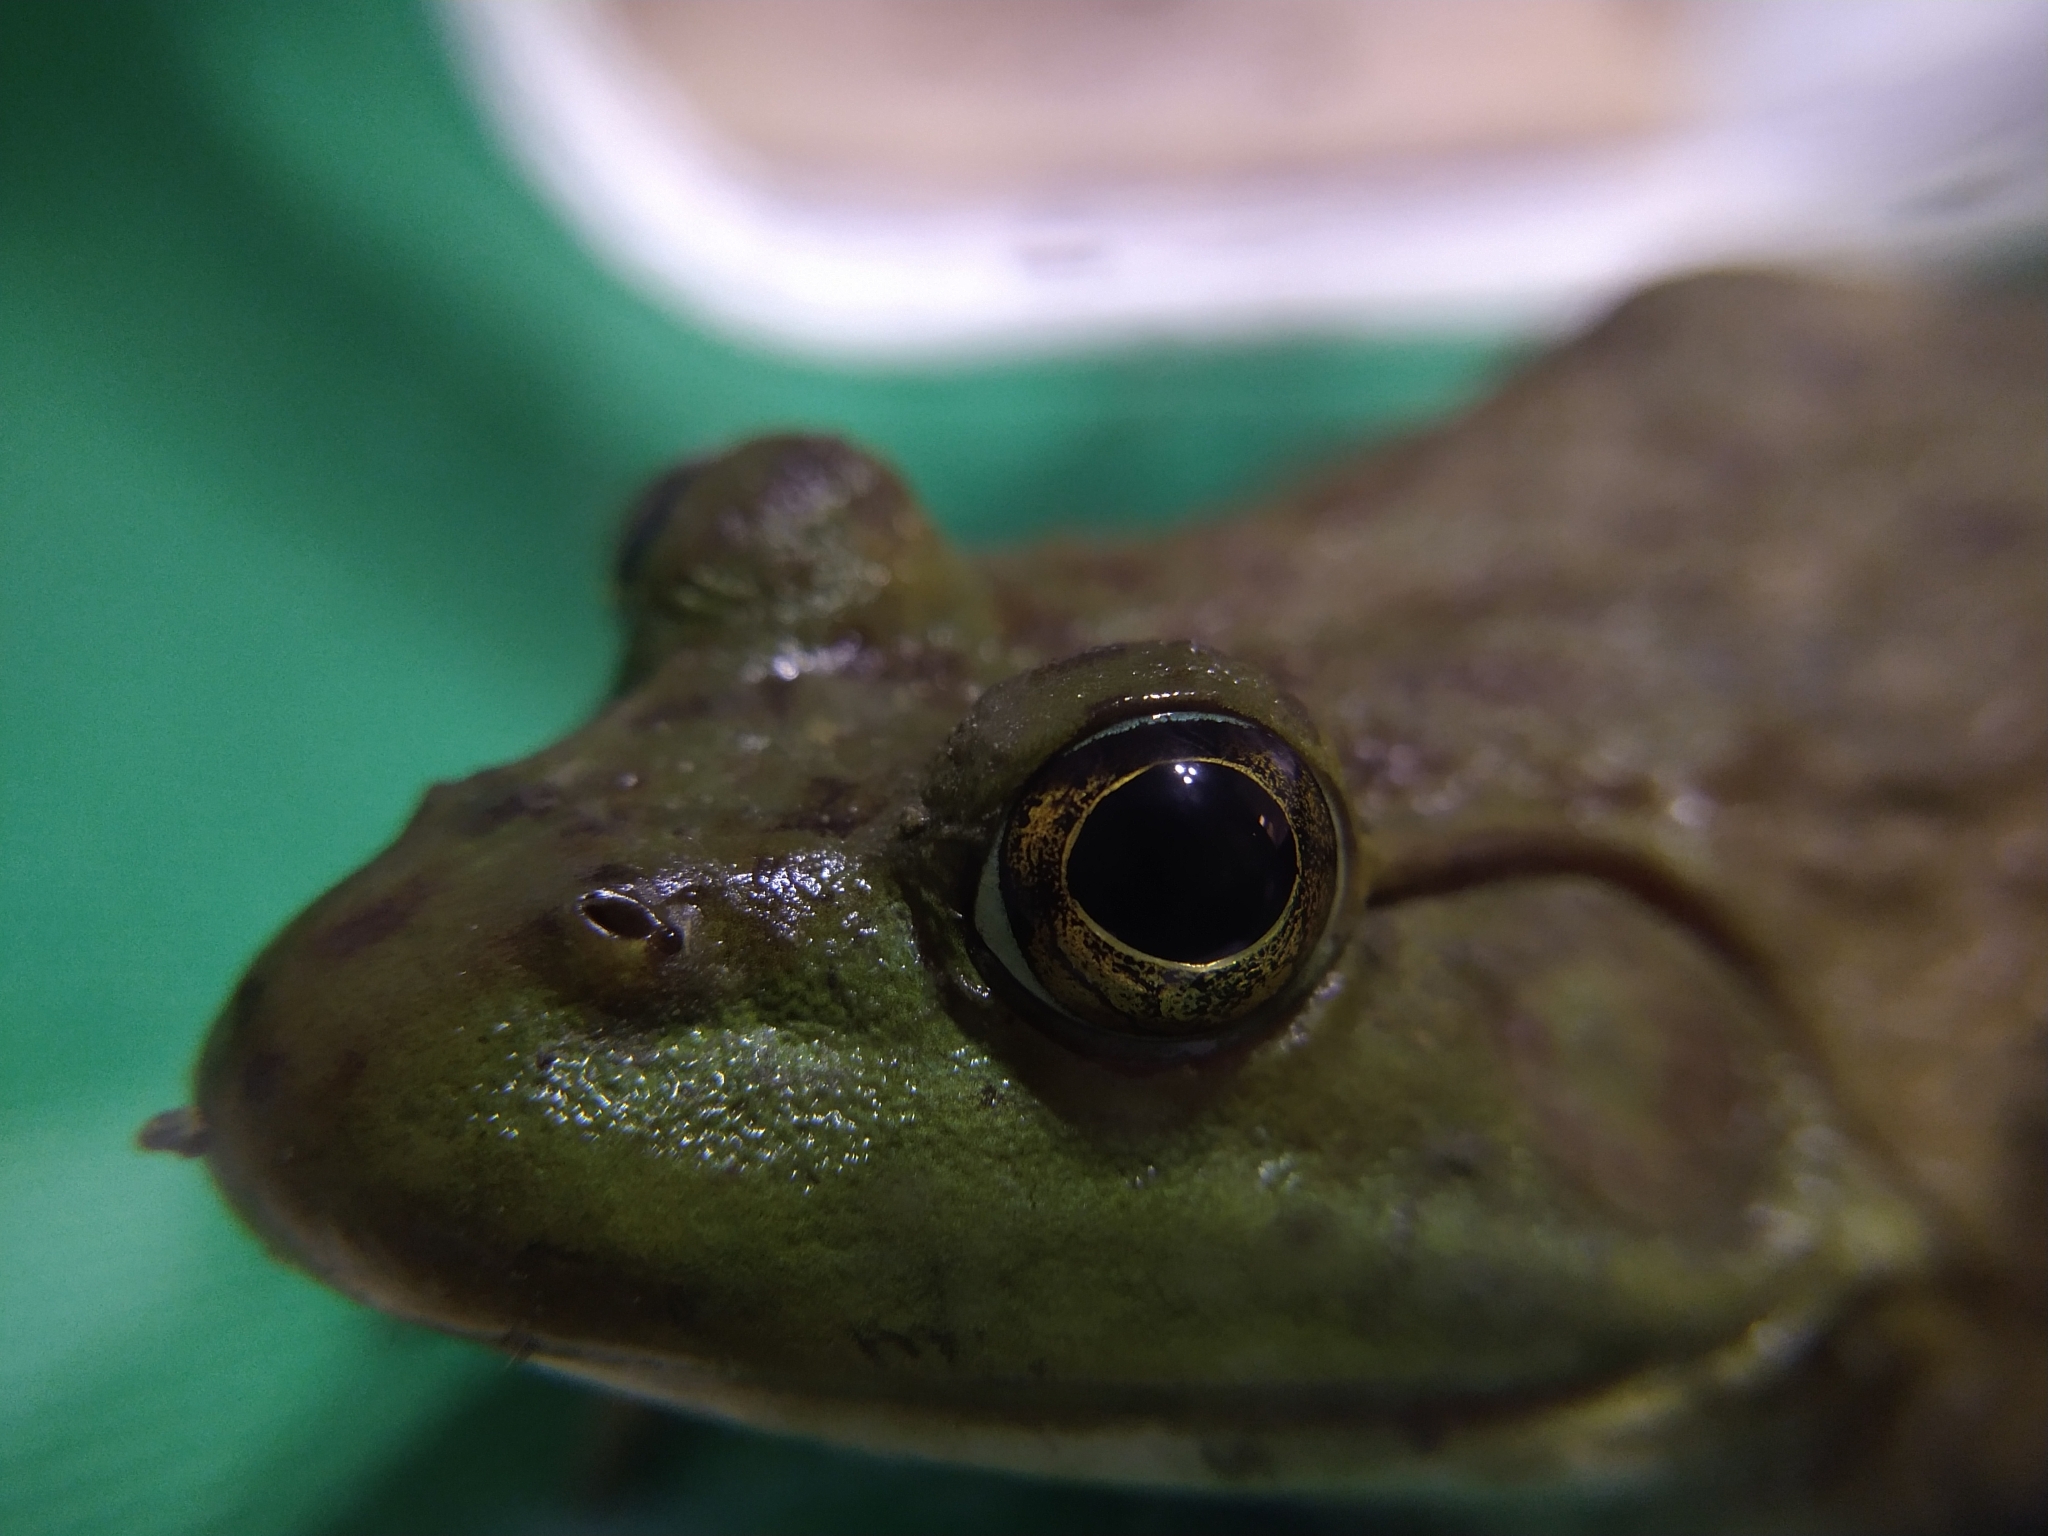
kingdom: Animalia
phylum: Chordata
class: Amphibia
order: Anura
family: Ranidae
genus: Lithobates
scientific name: Lithobates catesbeianus
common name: American bullfrog
